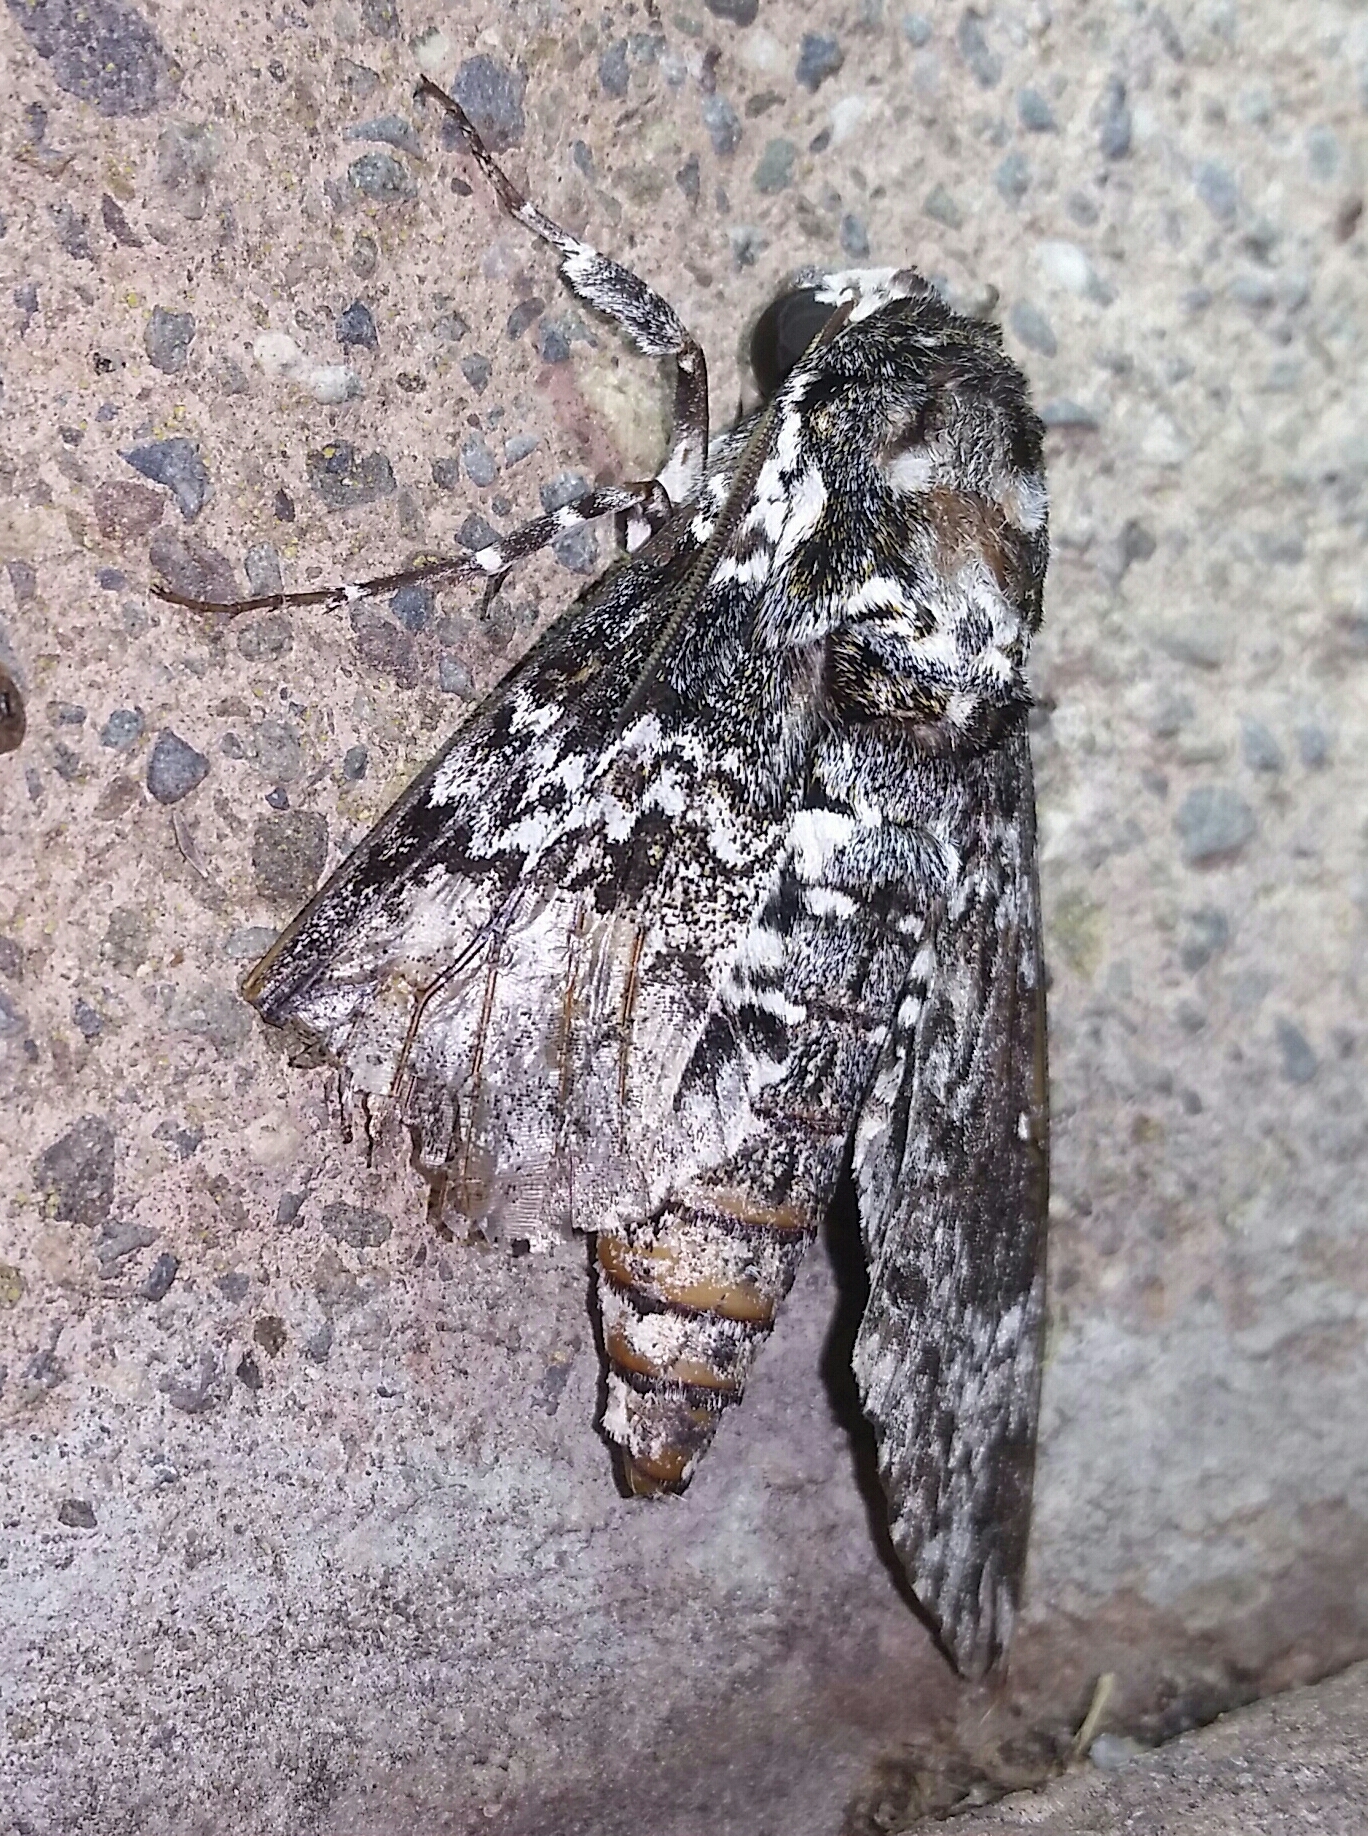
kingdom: Animalia
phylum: Arthropoda
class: Insecta
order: Lepidoptera
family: Sphingidae
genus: Manduca
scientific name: Manduca rustica
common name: Rustic sphinx
